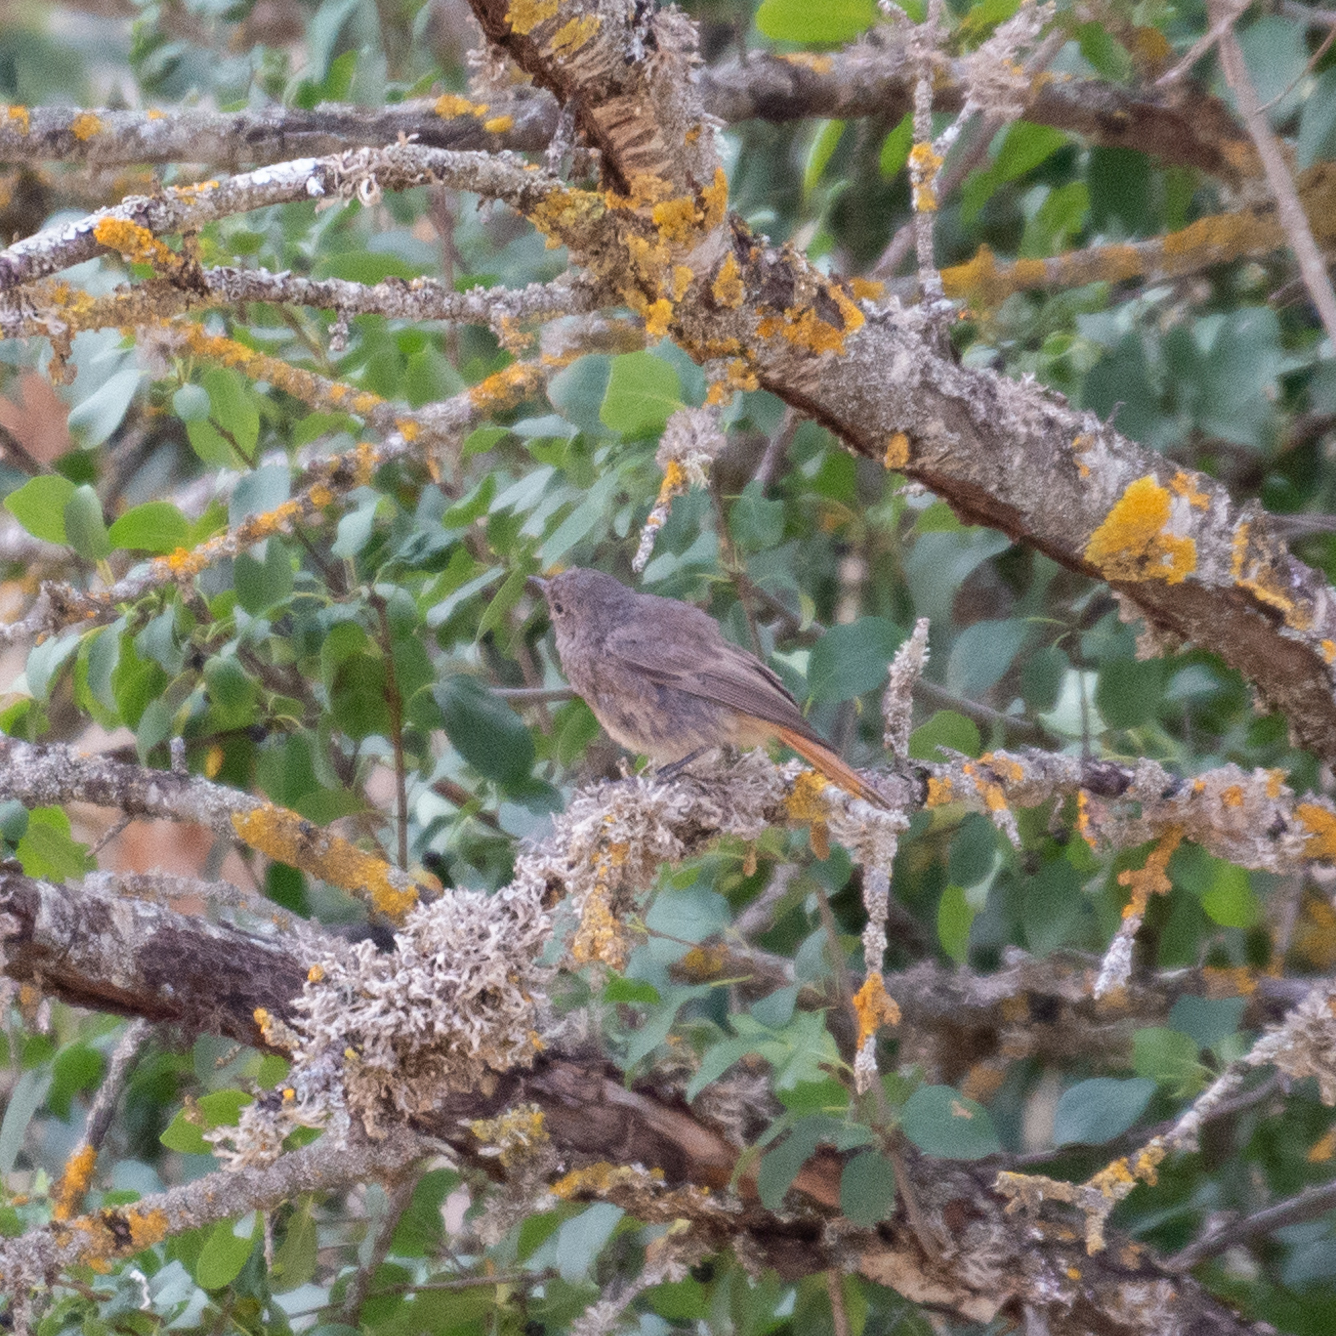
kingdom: Animalia
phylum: Chordata
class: Aves
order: Passeriformes
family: Muscicapidae
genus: Phoenicurus
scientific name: Phoenicurus ochruros
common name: Black redstart
